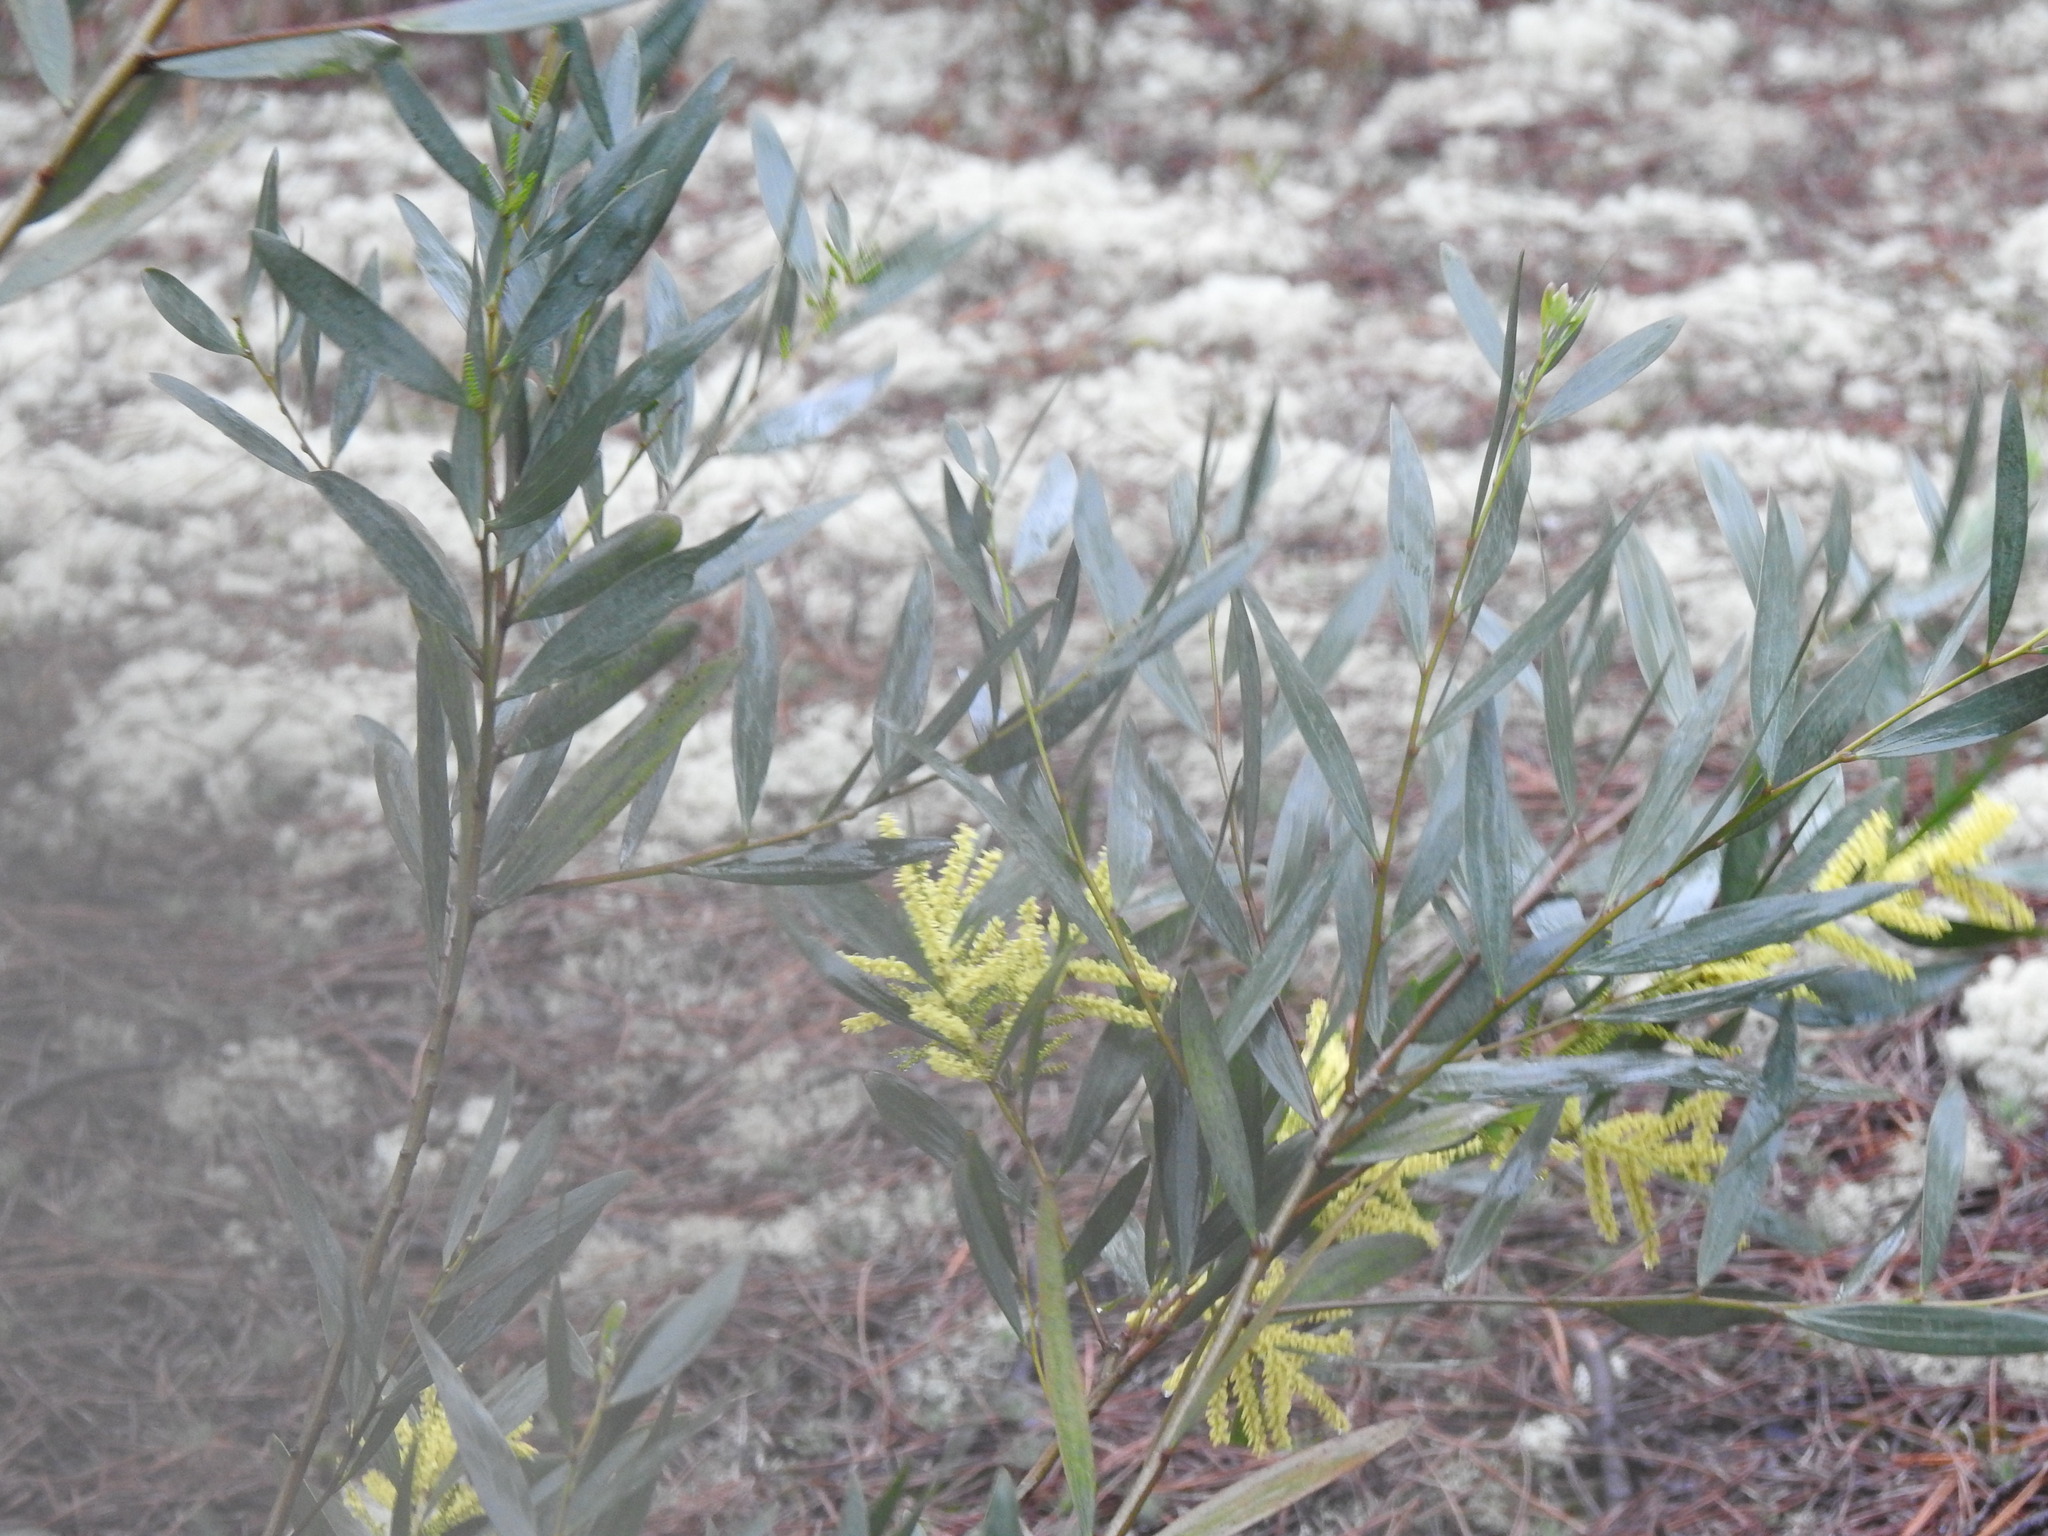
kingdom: Plantae
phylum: Tracheophyta
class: Magnoliopsida
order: Fabales
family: Fabaceae
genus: Acacia
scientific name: Acacia longifolia
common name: Sydney golden wattle
